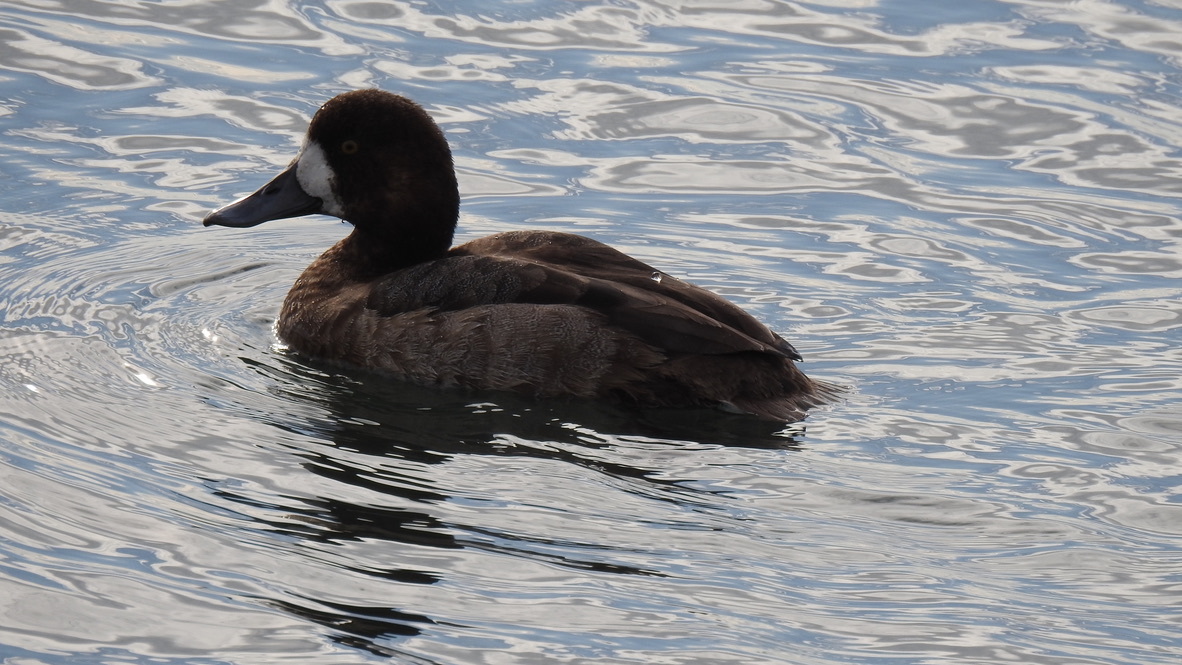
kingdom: Animalia
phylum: Chordata
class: Aves
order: Anseriformes
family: Anatidae
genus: Aythya
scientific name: Aythya marila
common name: Greater scaup
